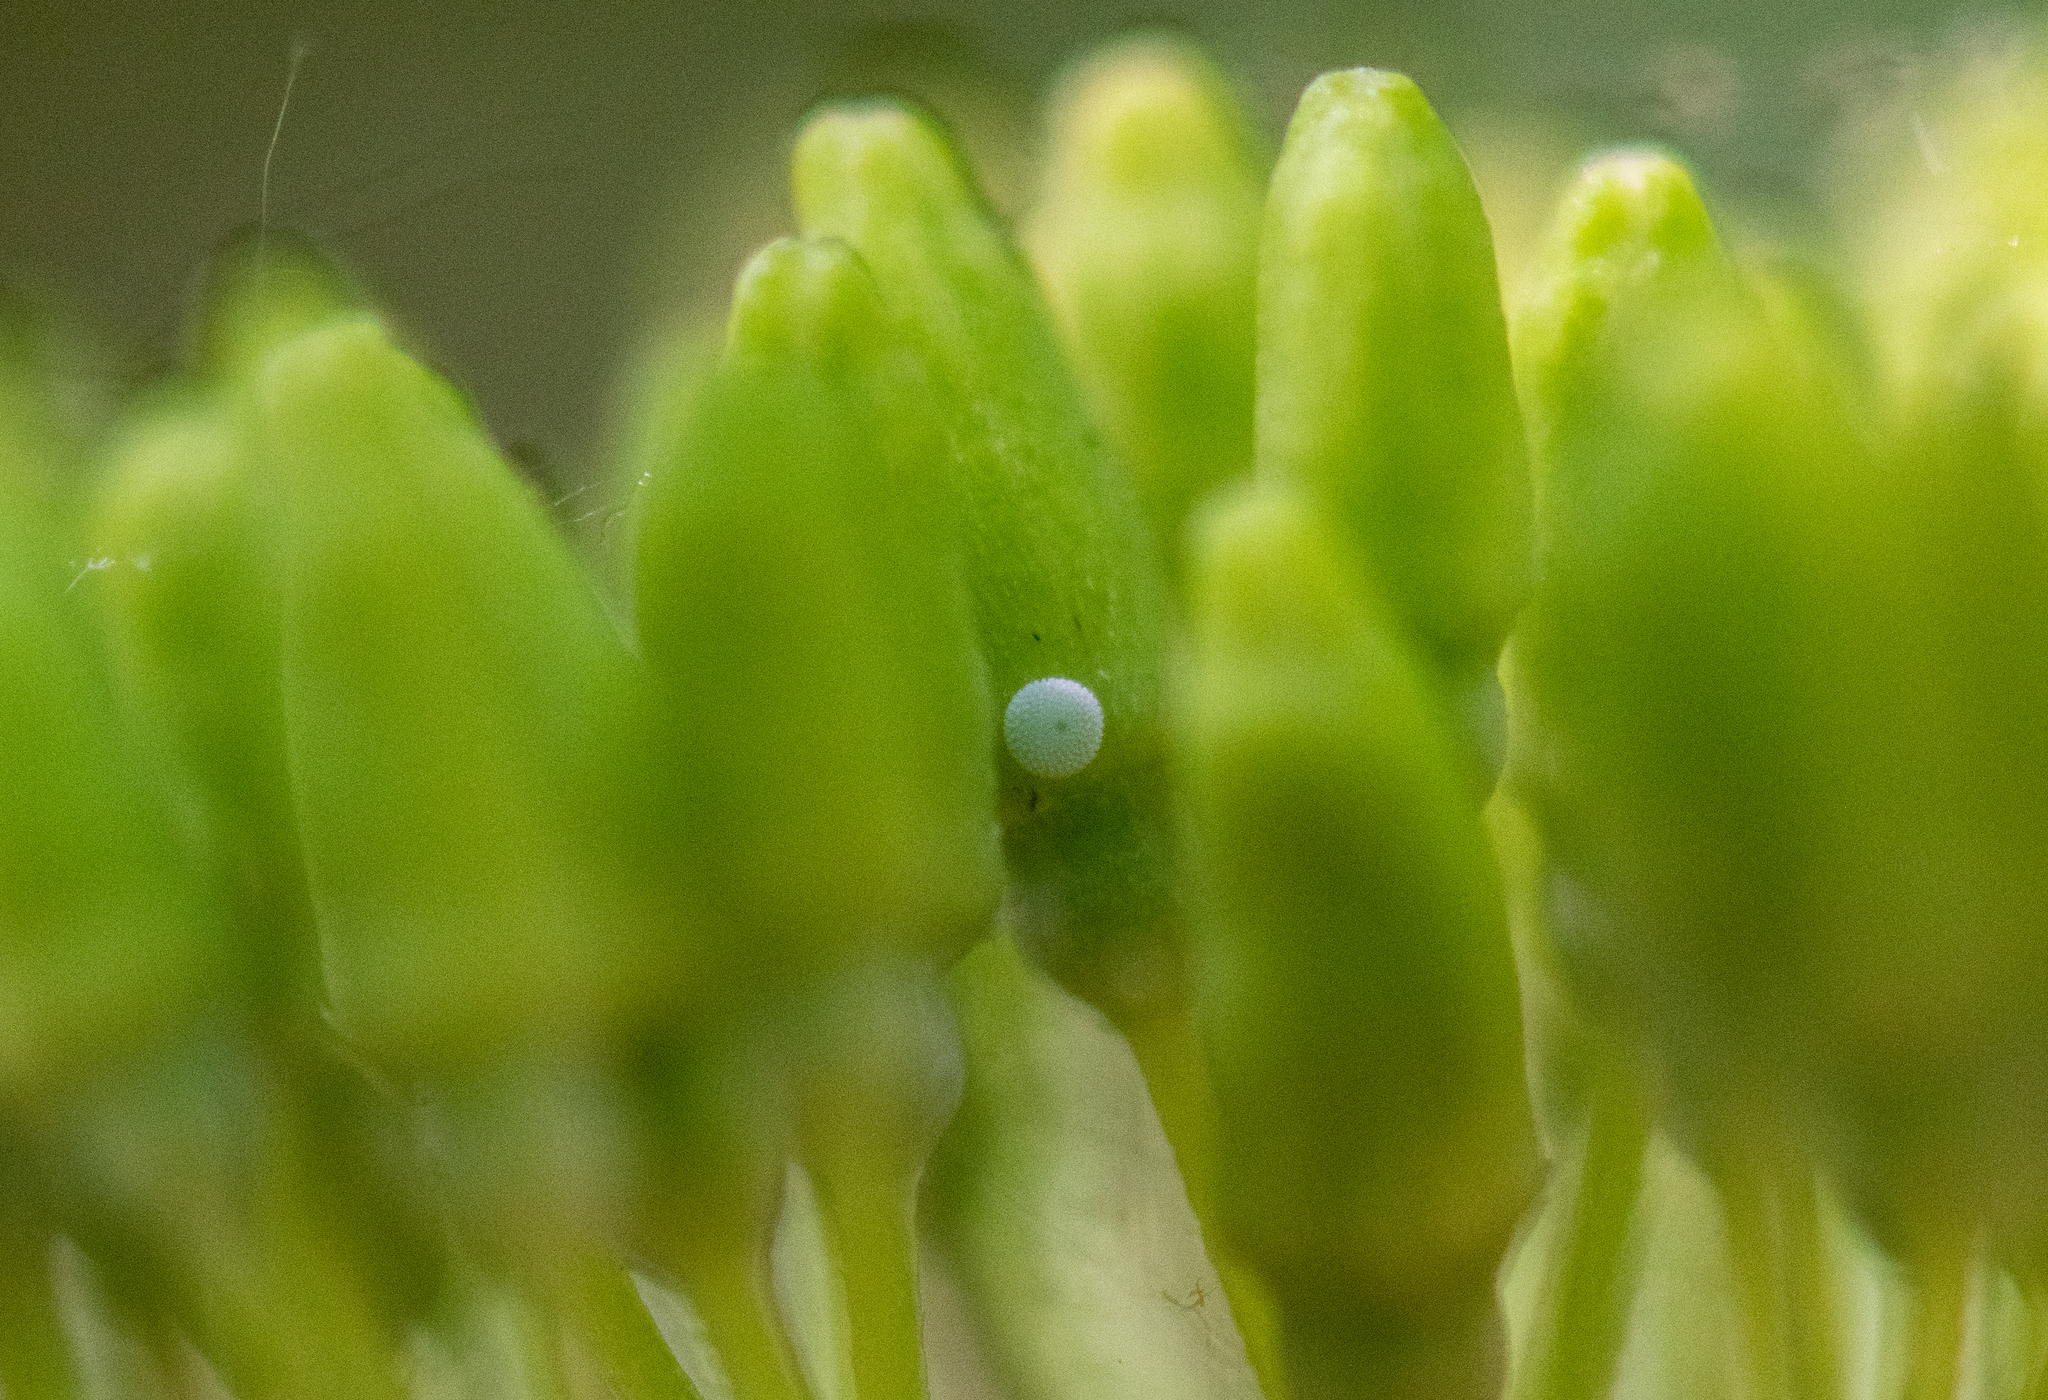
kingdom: Animalia
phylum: Arthropoda
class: Insecta
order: Lepidoptera
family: Lycaenidae
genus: Celastrina
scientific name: Celastrina argiolus
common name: Holly blue
